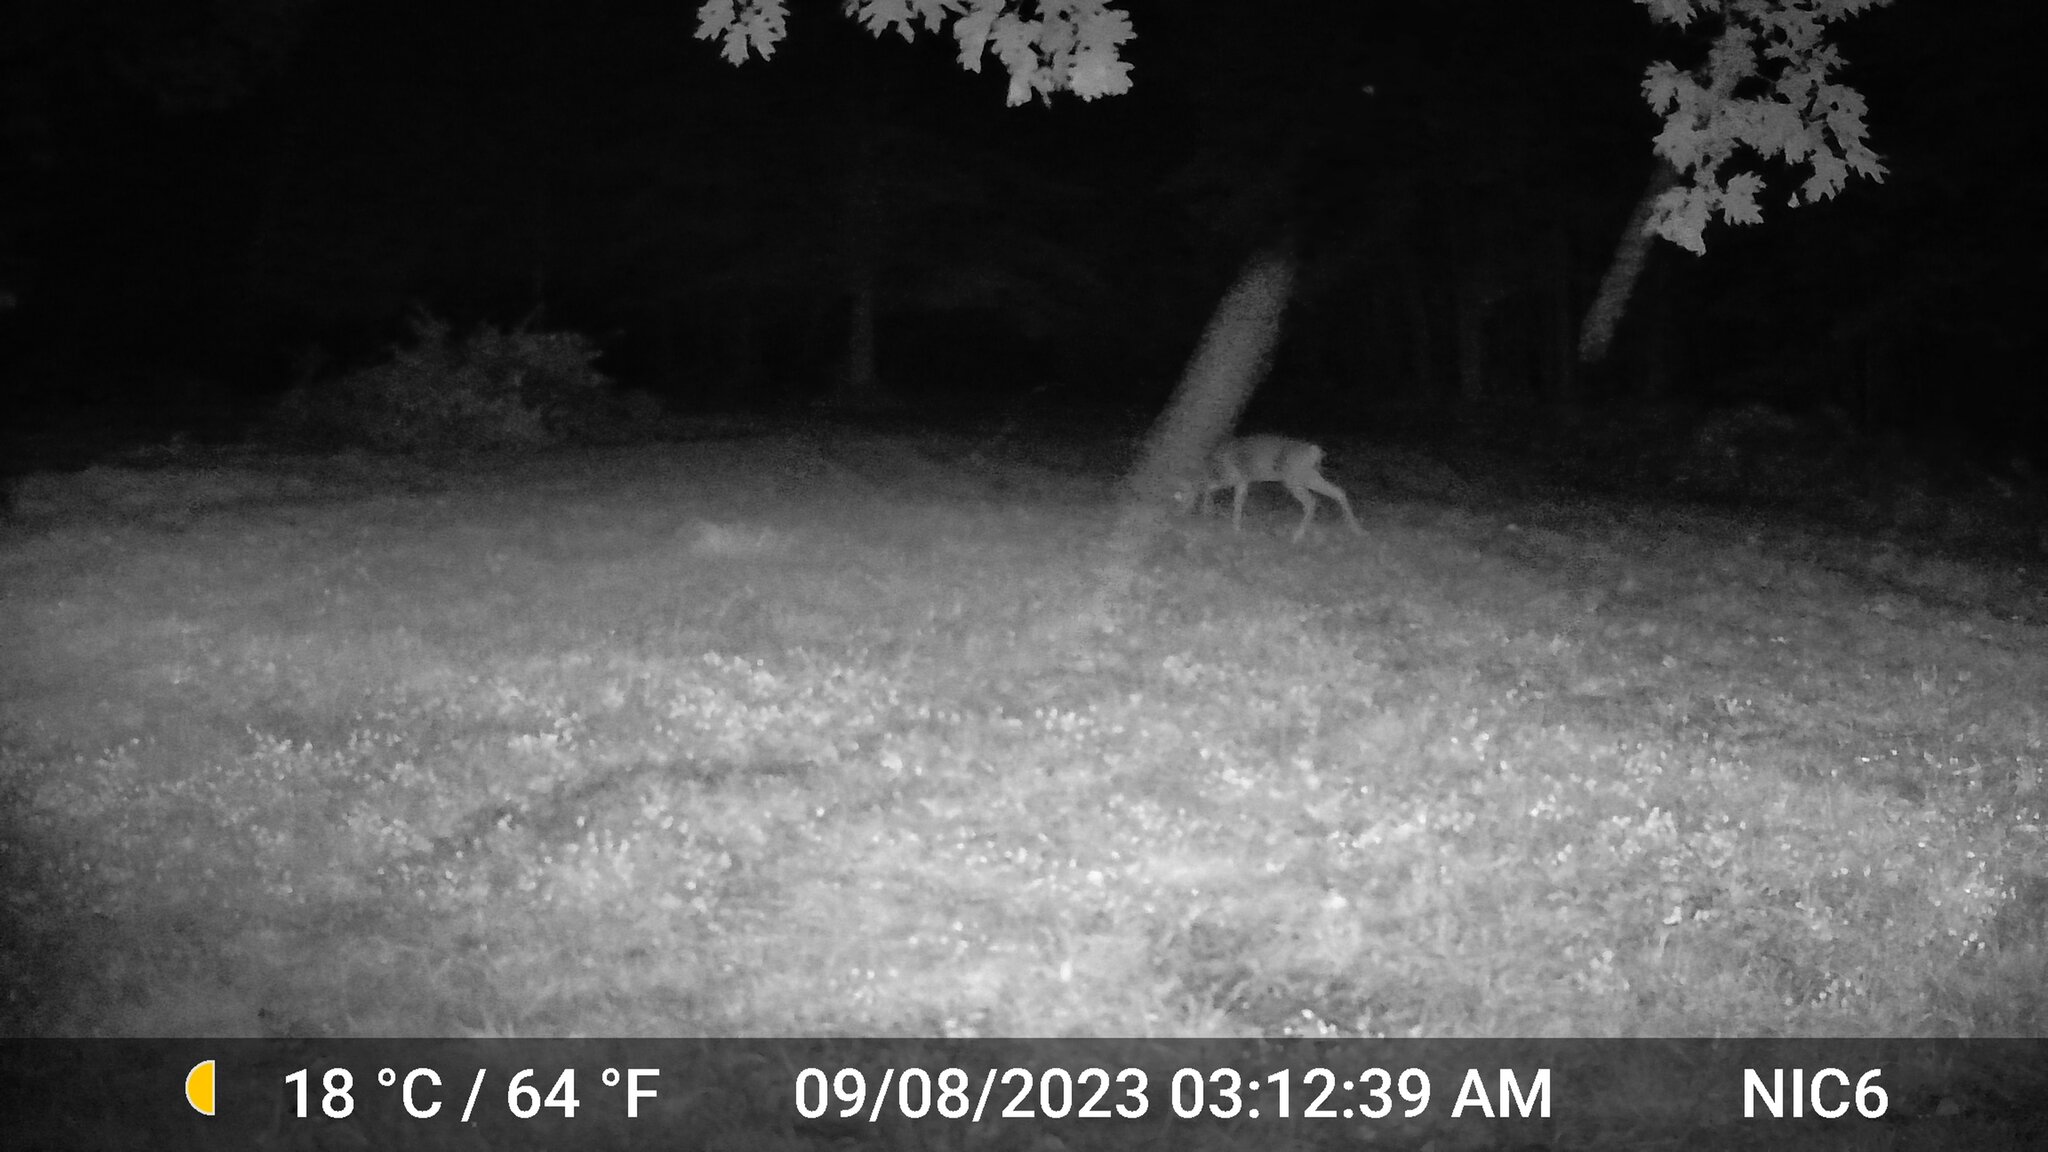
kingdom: Animalia
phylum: Chordata
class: Mammalia
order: Artiodactyla
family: Cervidae
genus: Odocoileus
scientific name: Odocoileus virginianus
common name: White-tailed deer
